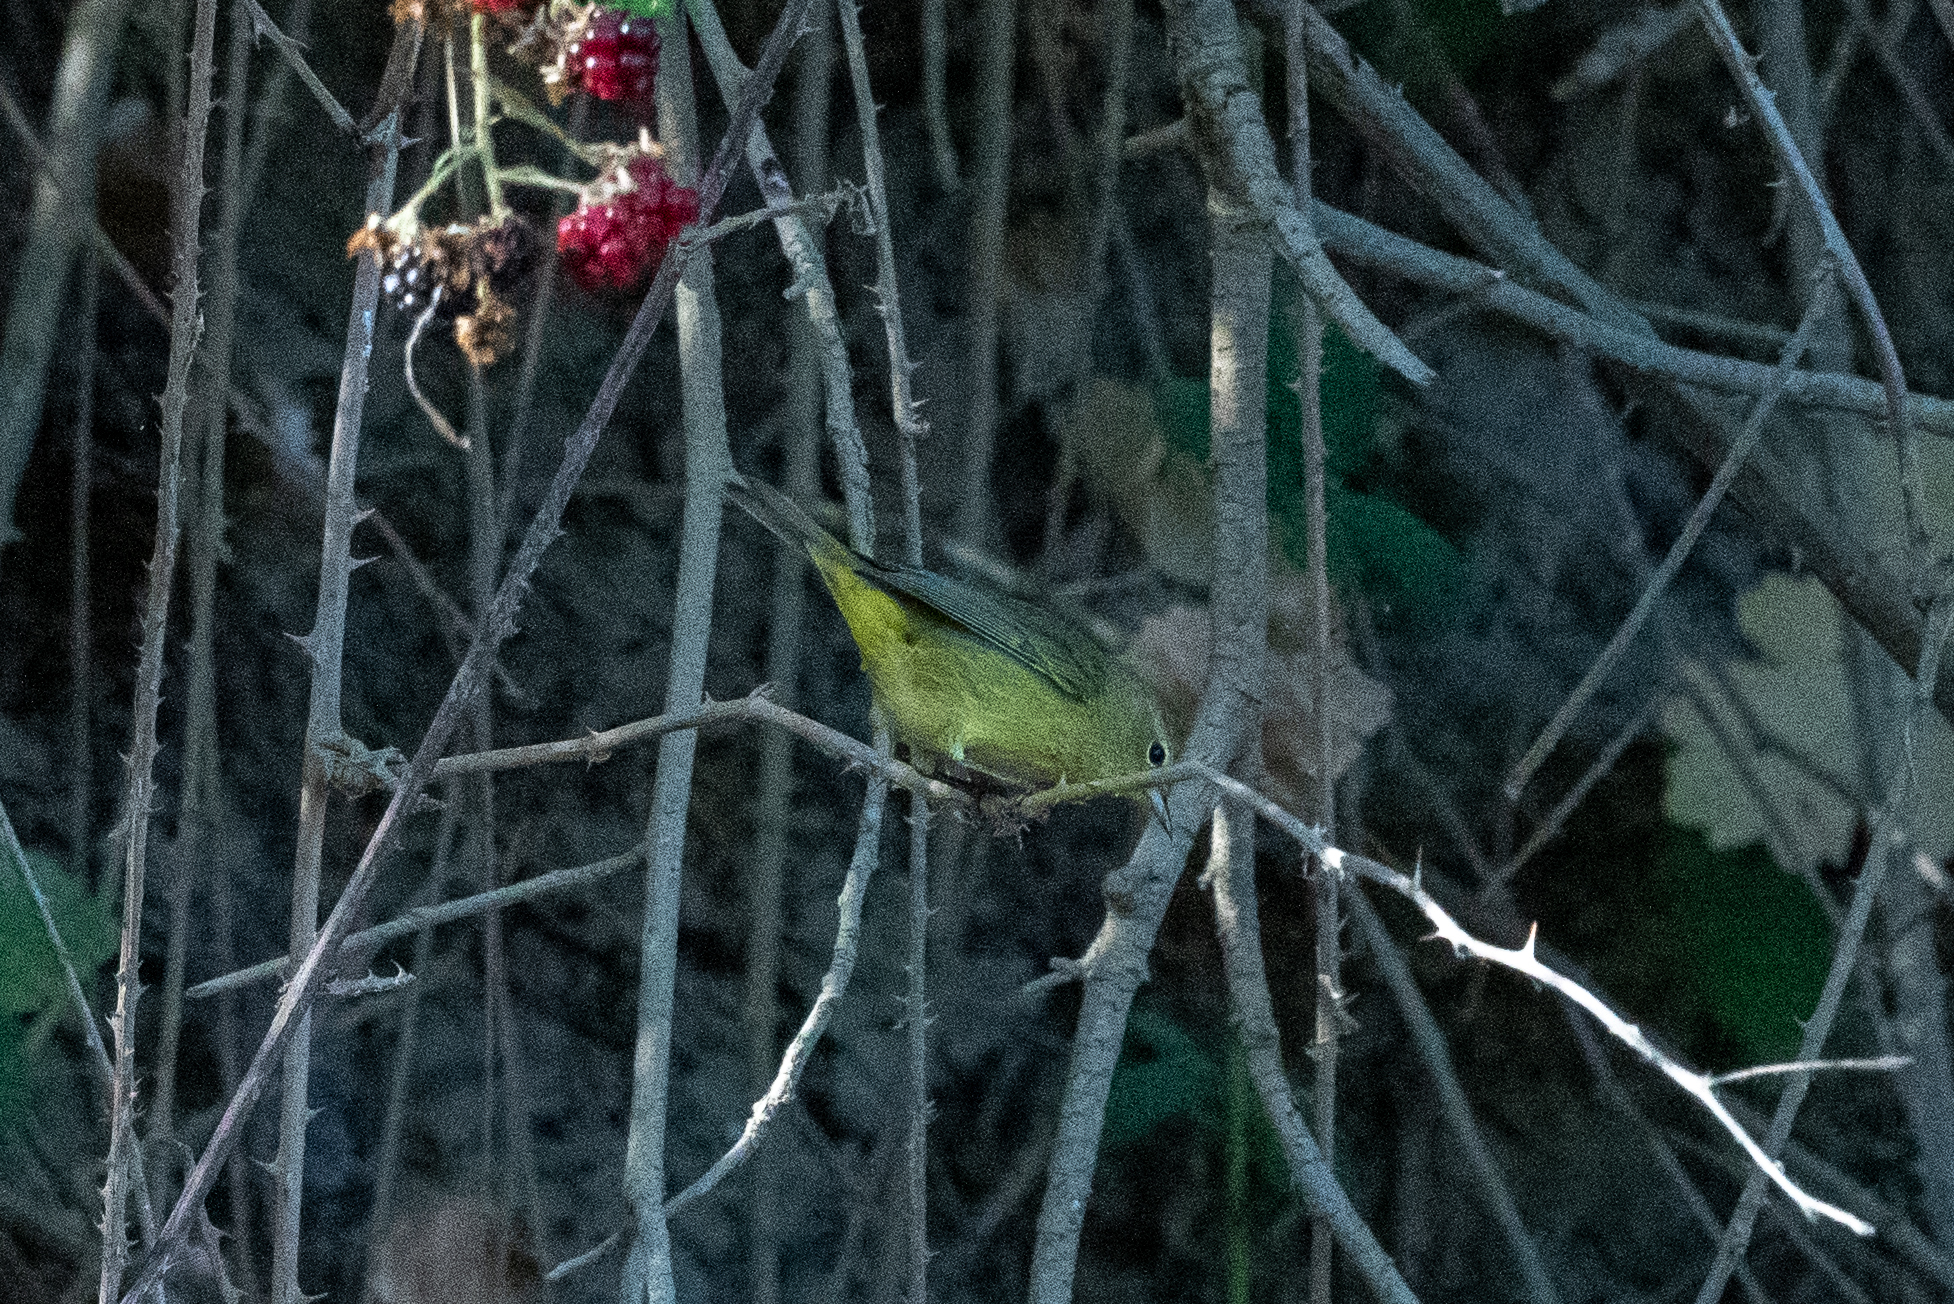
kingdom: Animalia
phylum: Chordata
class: Aves
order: Passeriformes
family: Parulidae
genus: Leiothlypis
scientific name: Leiothlypis celata
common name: Orange-crowned warbler
